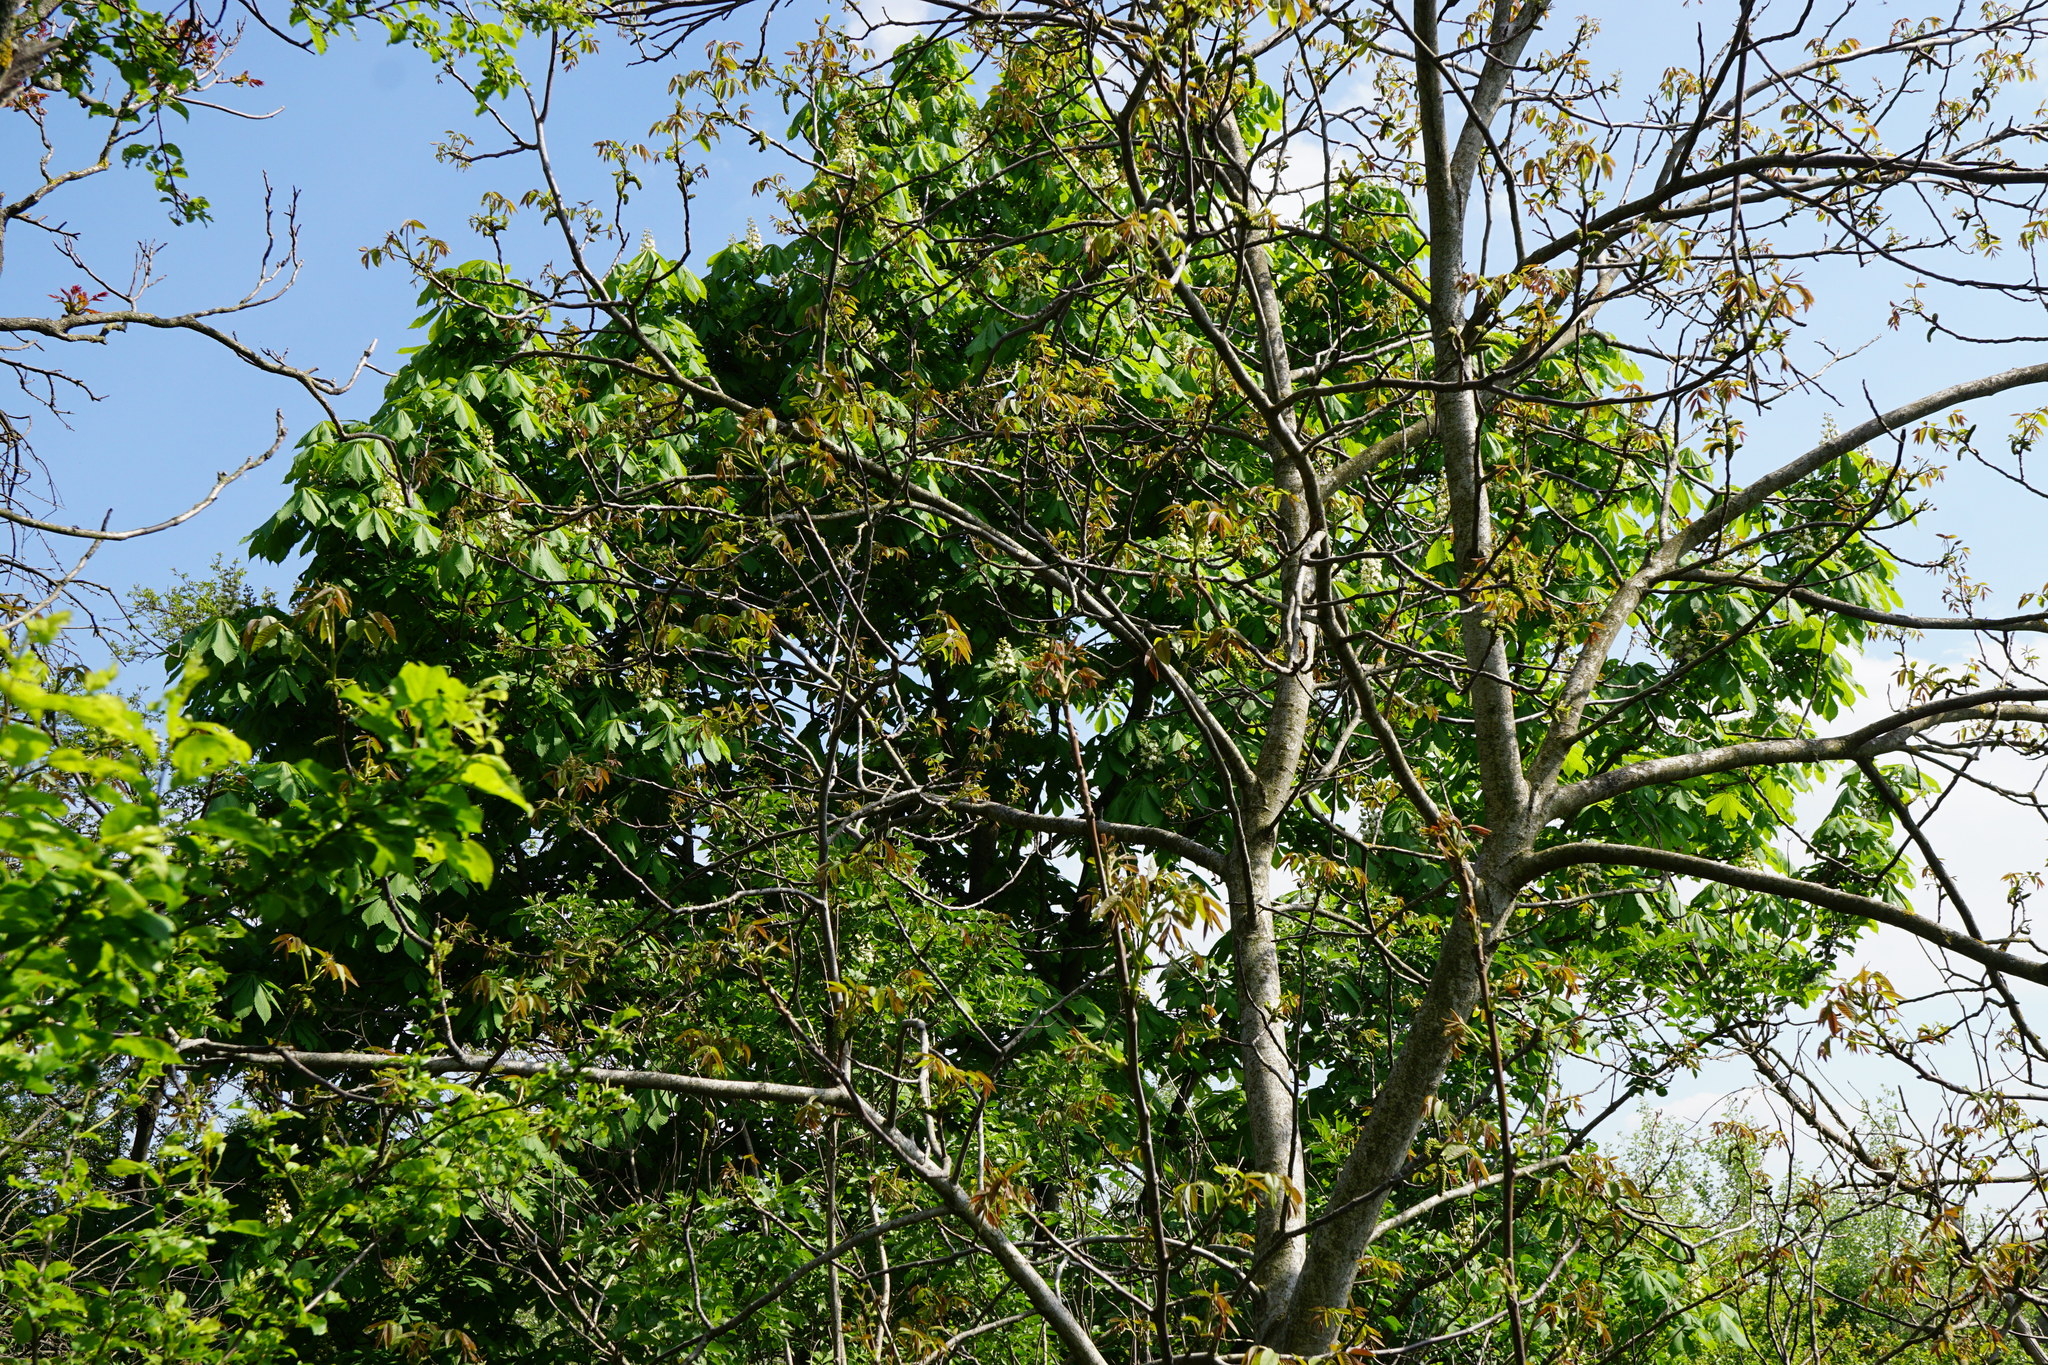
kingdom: Plantae
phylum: Tracheophyta
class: Magnoliopsida
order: Sapindales
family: Sapindaceae
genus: Aesculus
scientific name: Aesculus hippocastanum
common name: Horse-chestnut
